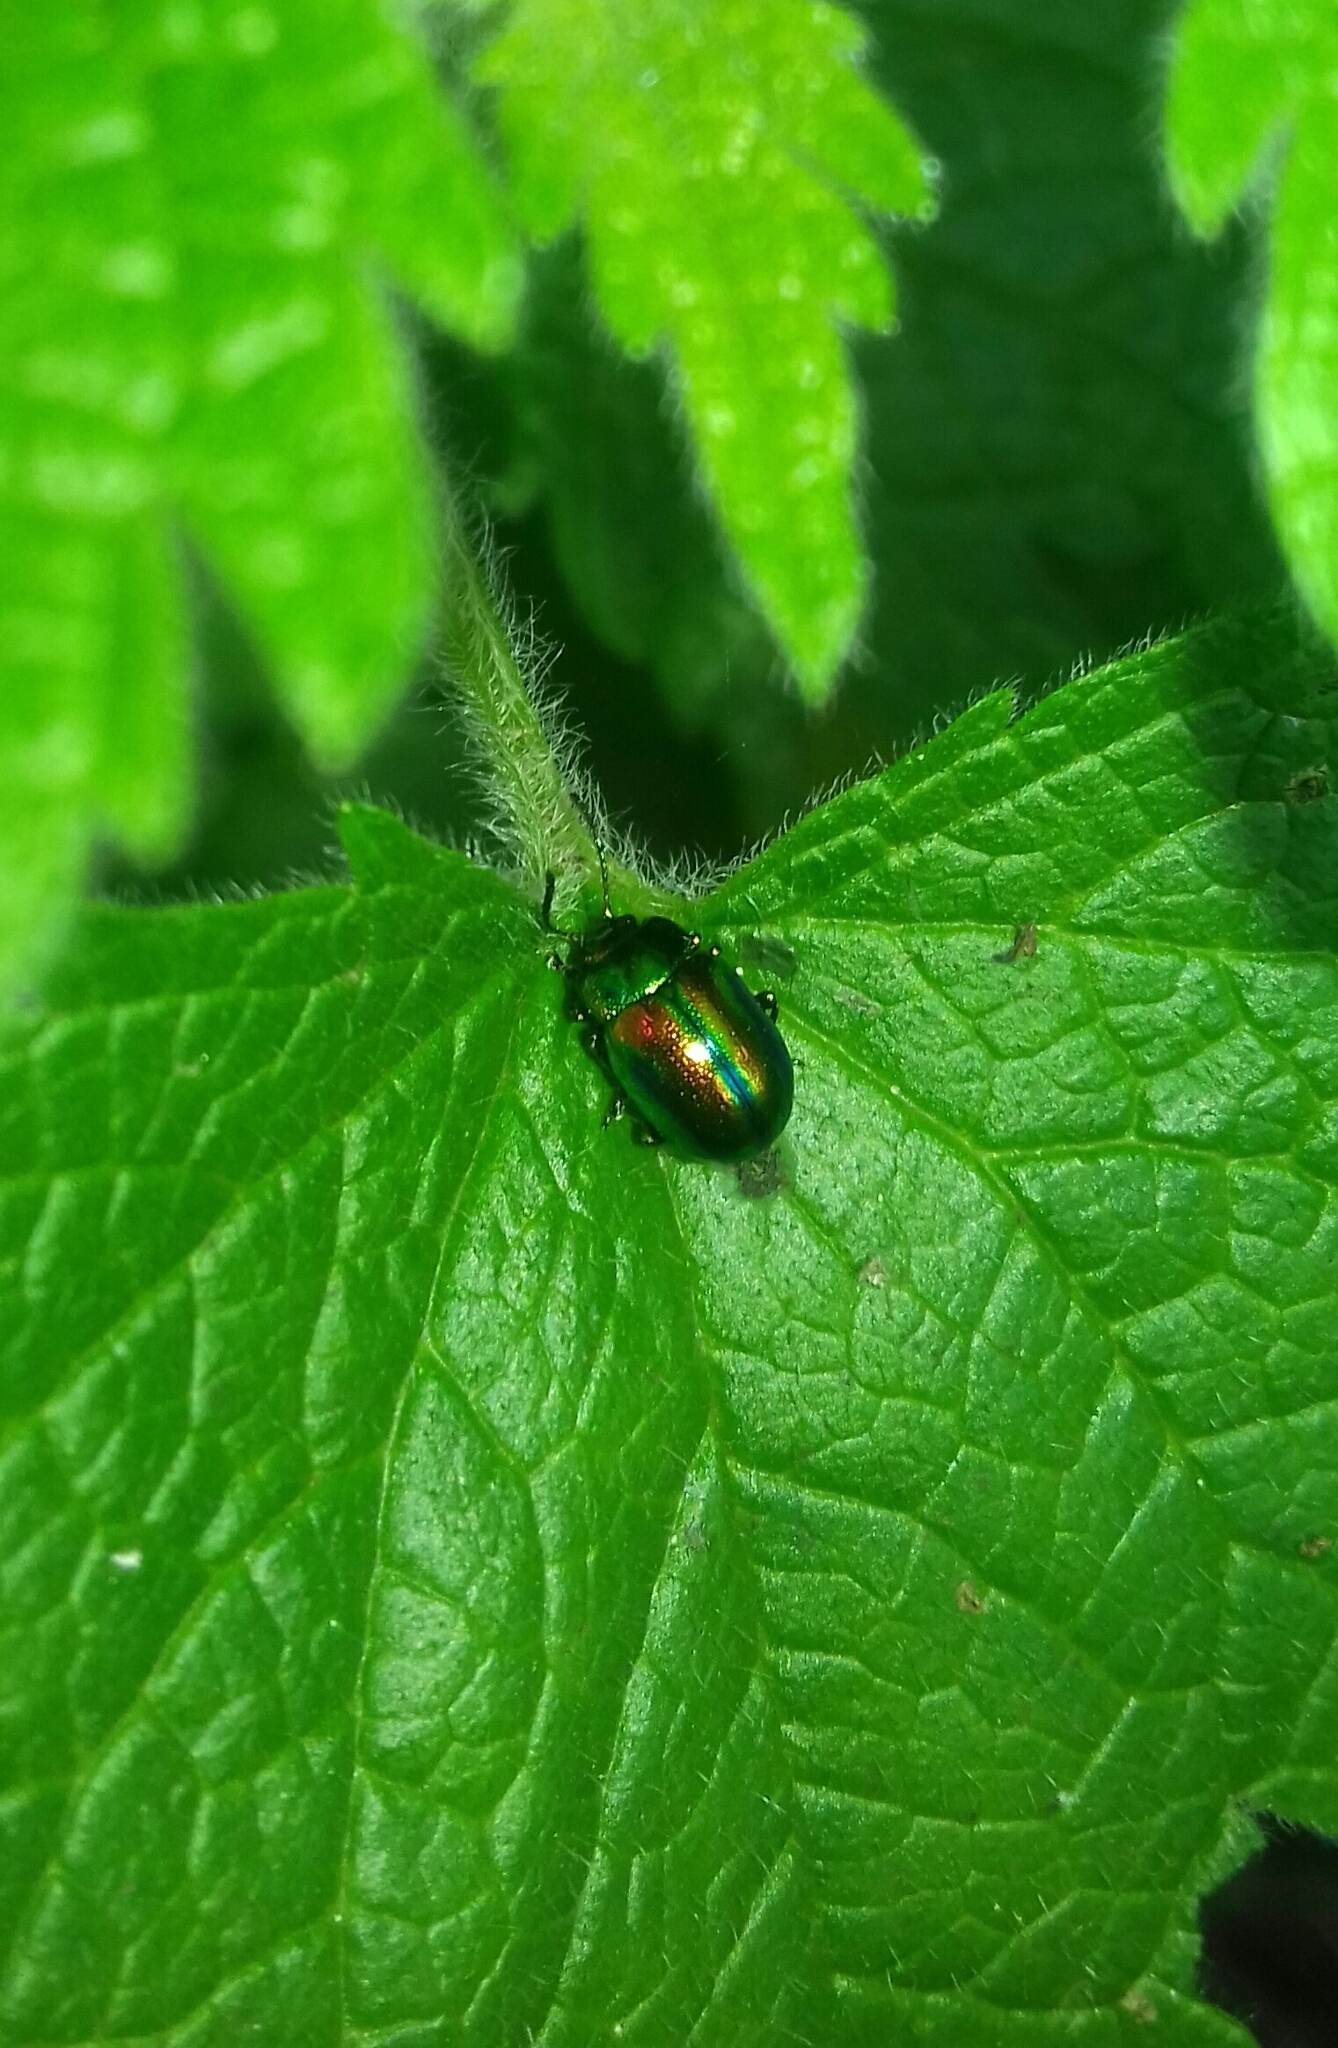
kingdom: Animalia
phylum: Arthropoda
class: Insecta
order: Coleoptera
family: Chrysomelidae
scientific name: Chrysomelidae
